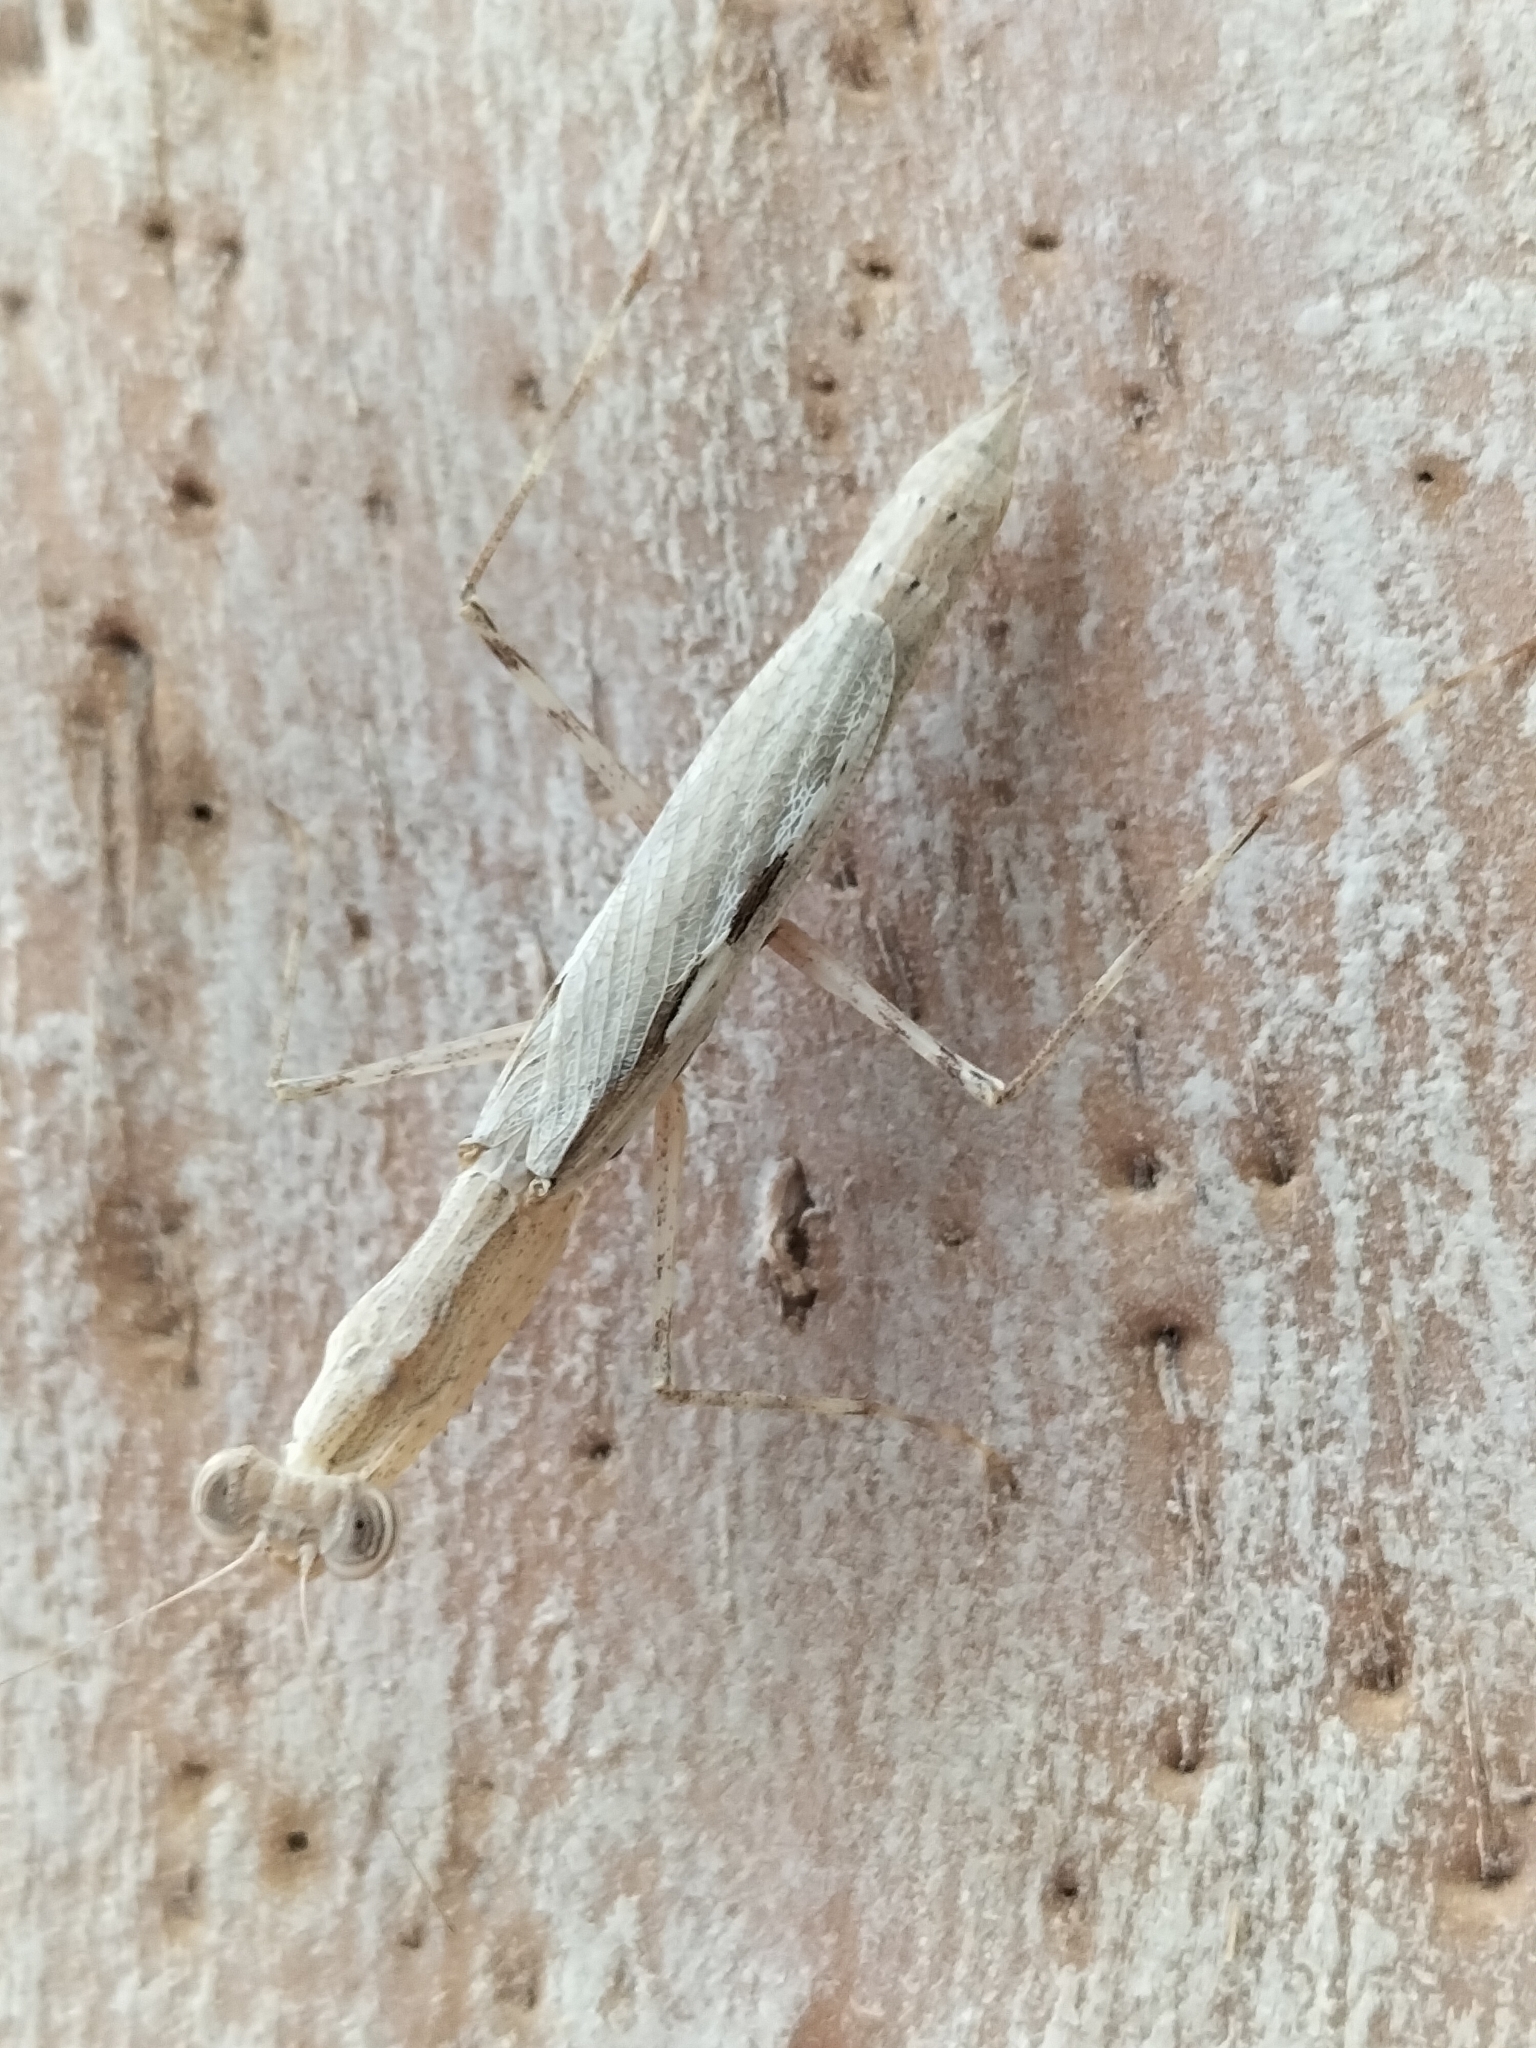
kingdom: Animalia
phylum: Arthropoda
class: Insecta
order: Mantodea
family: Nanomantidae
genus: Ima
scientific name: Ima fusca
